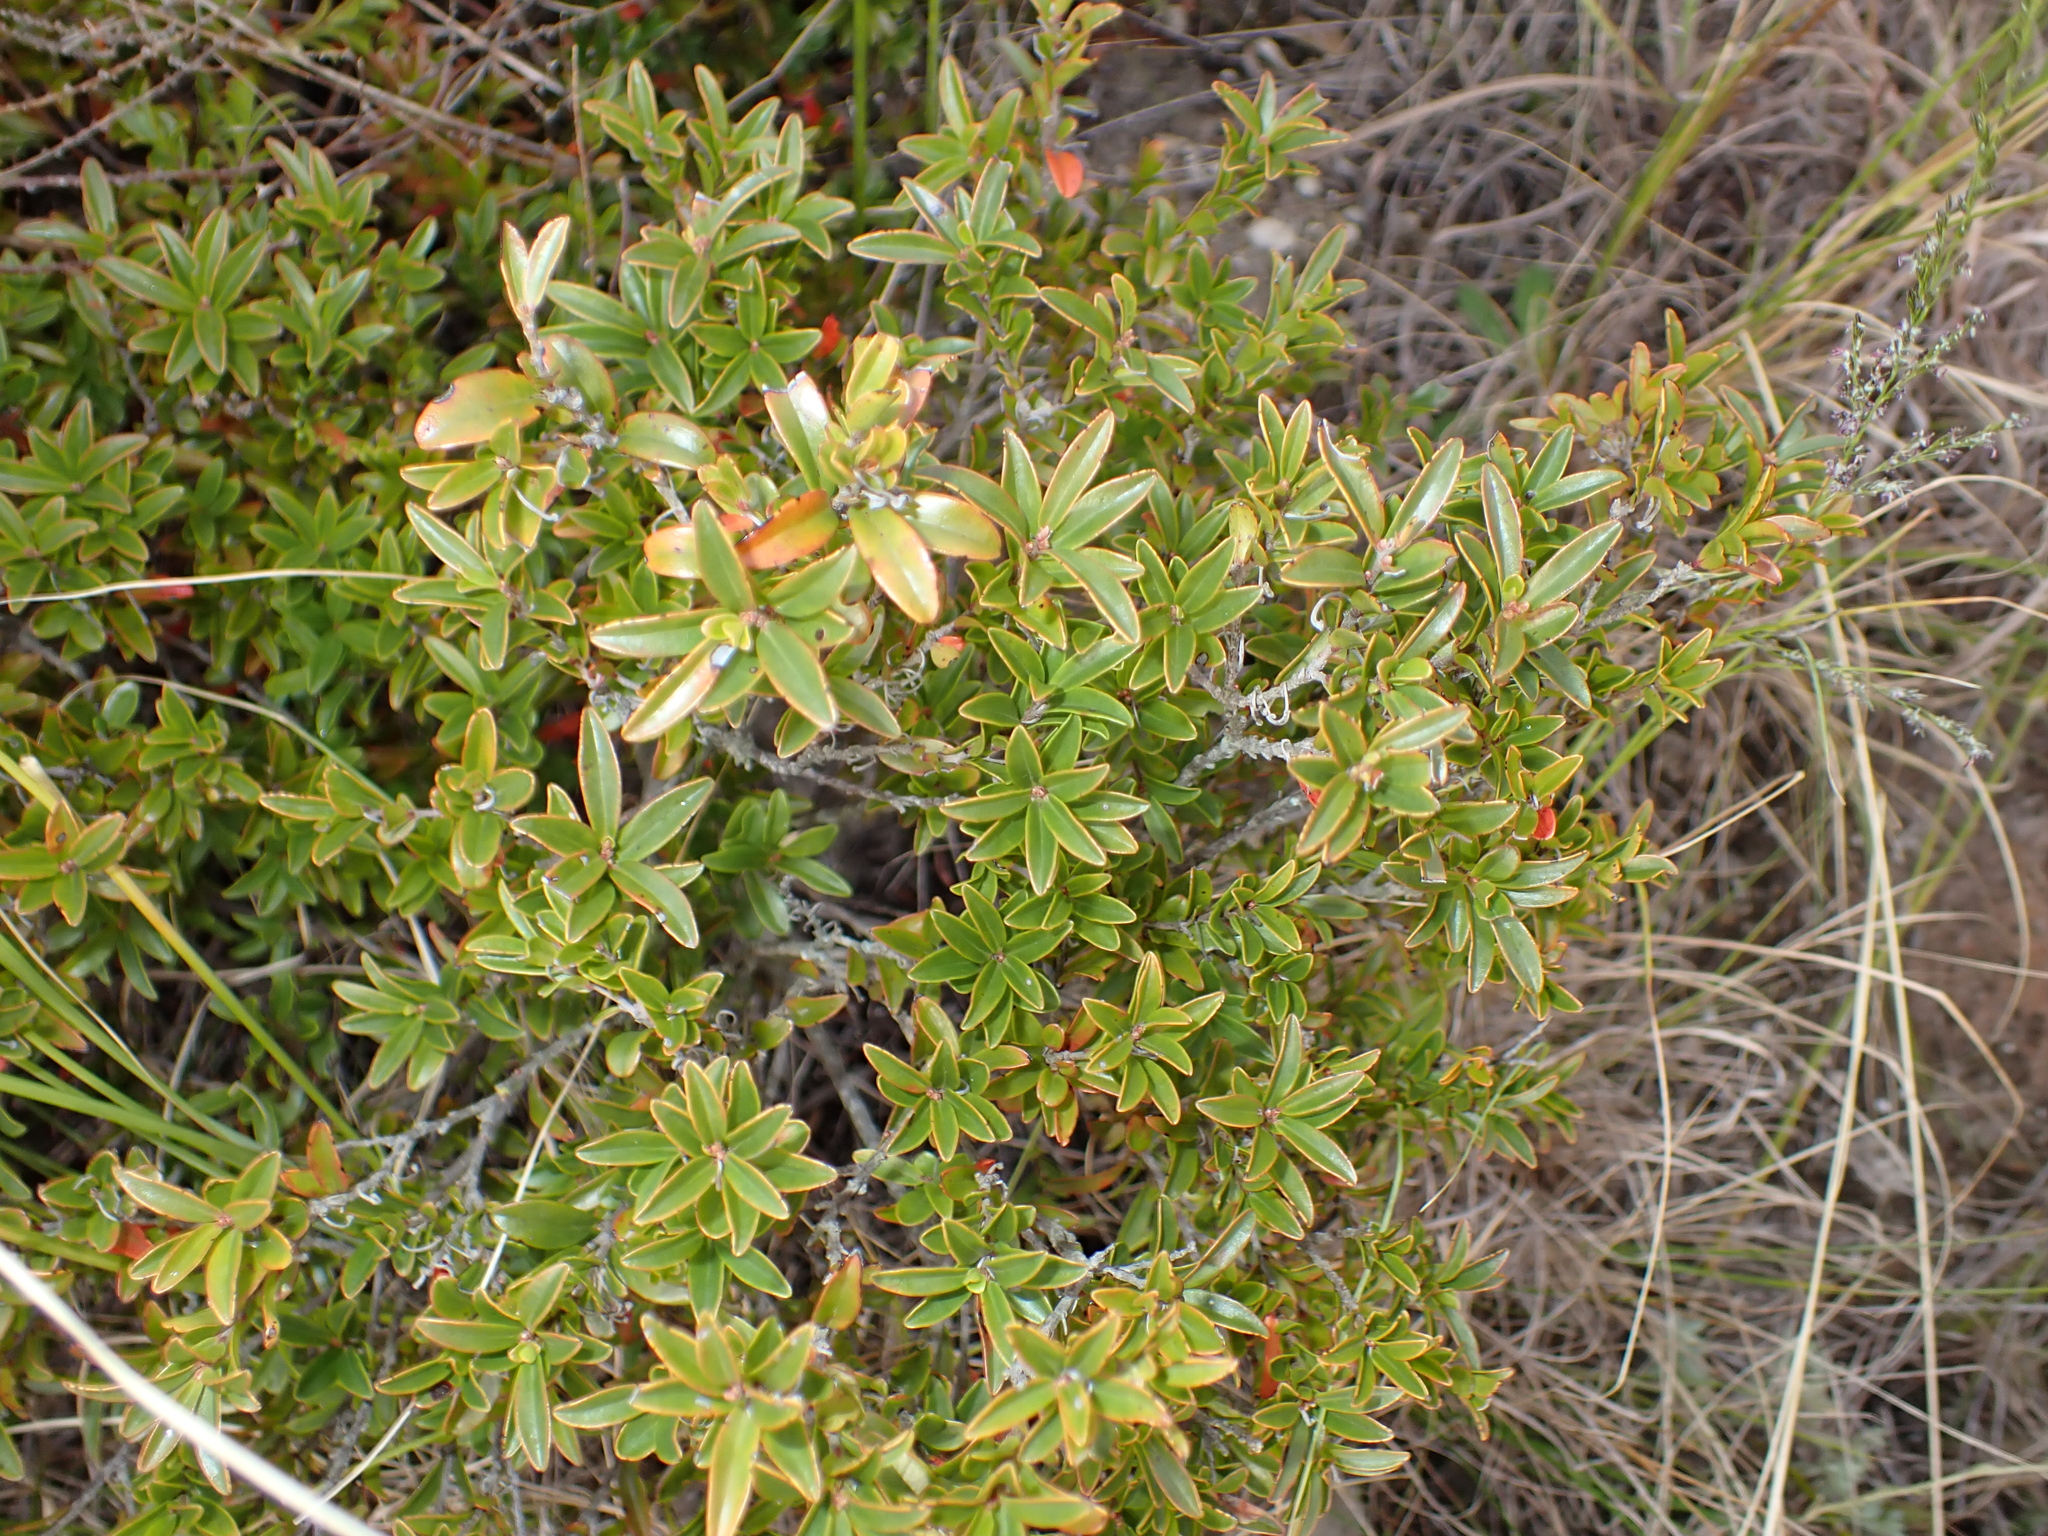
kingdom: Plantae
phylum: Tracheophyta
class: Magnoliopsida
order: Ericales
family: Ebenaceae
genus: Diospyros
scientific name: Diospyros glabra
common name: Fynbos star apple
